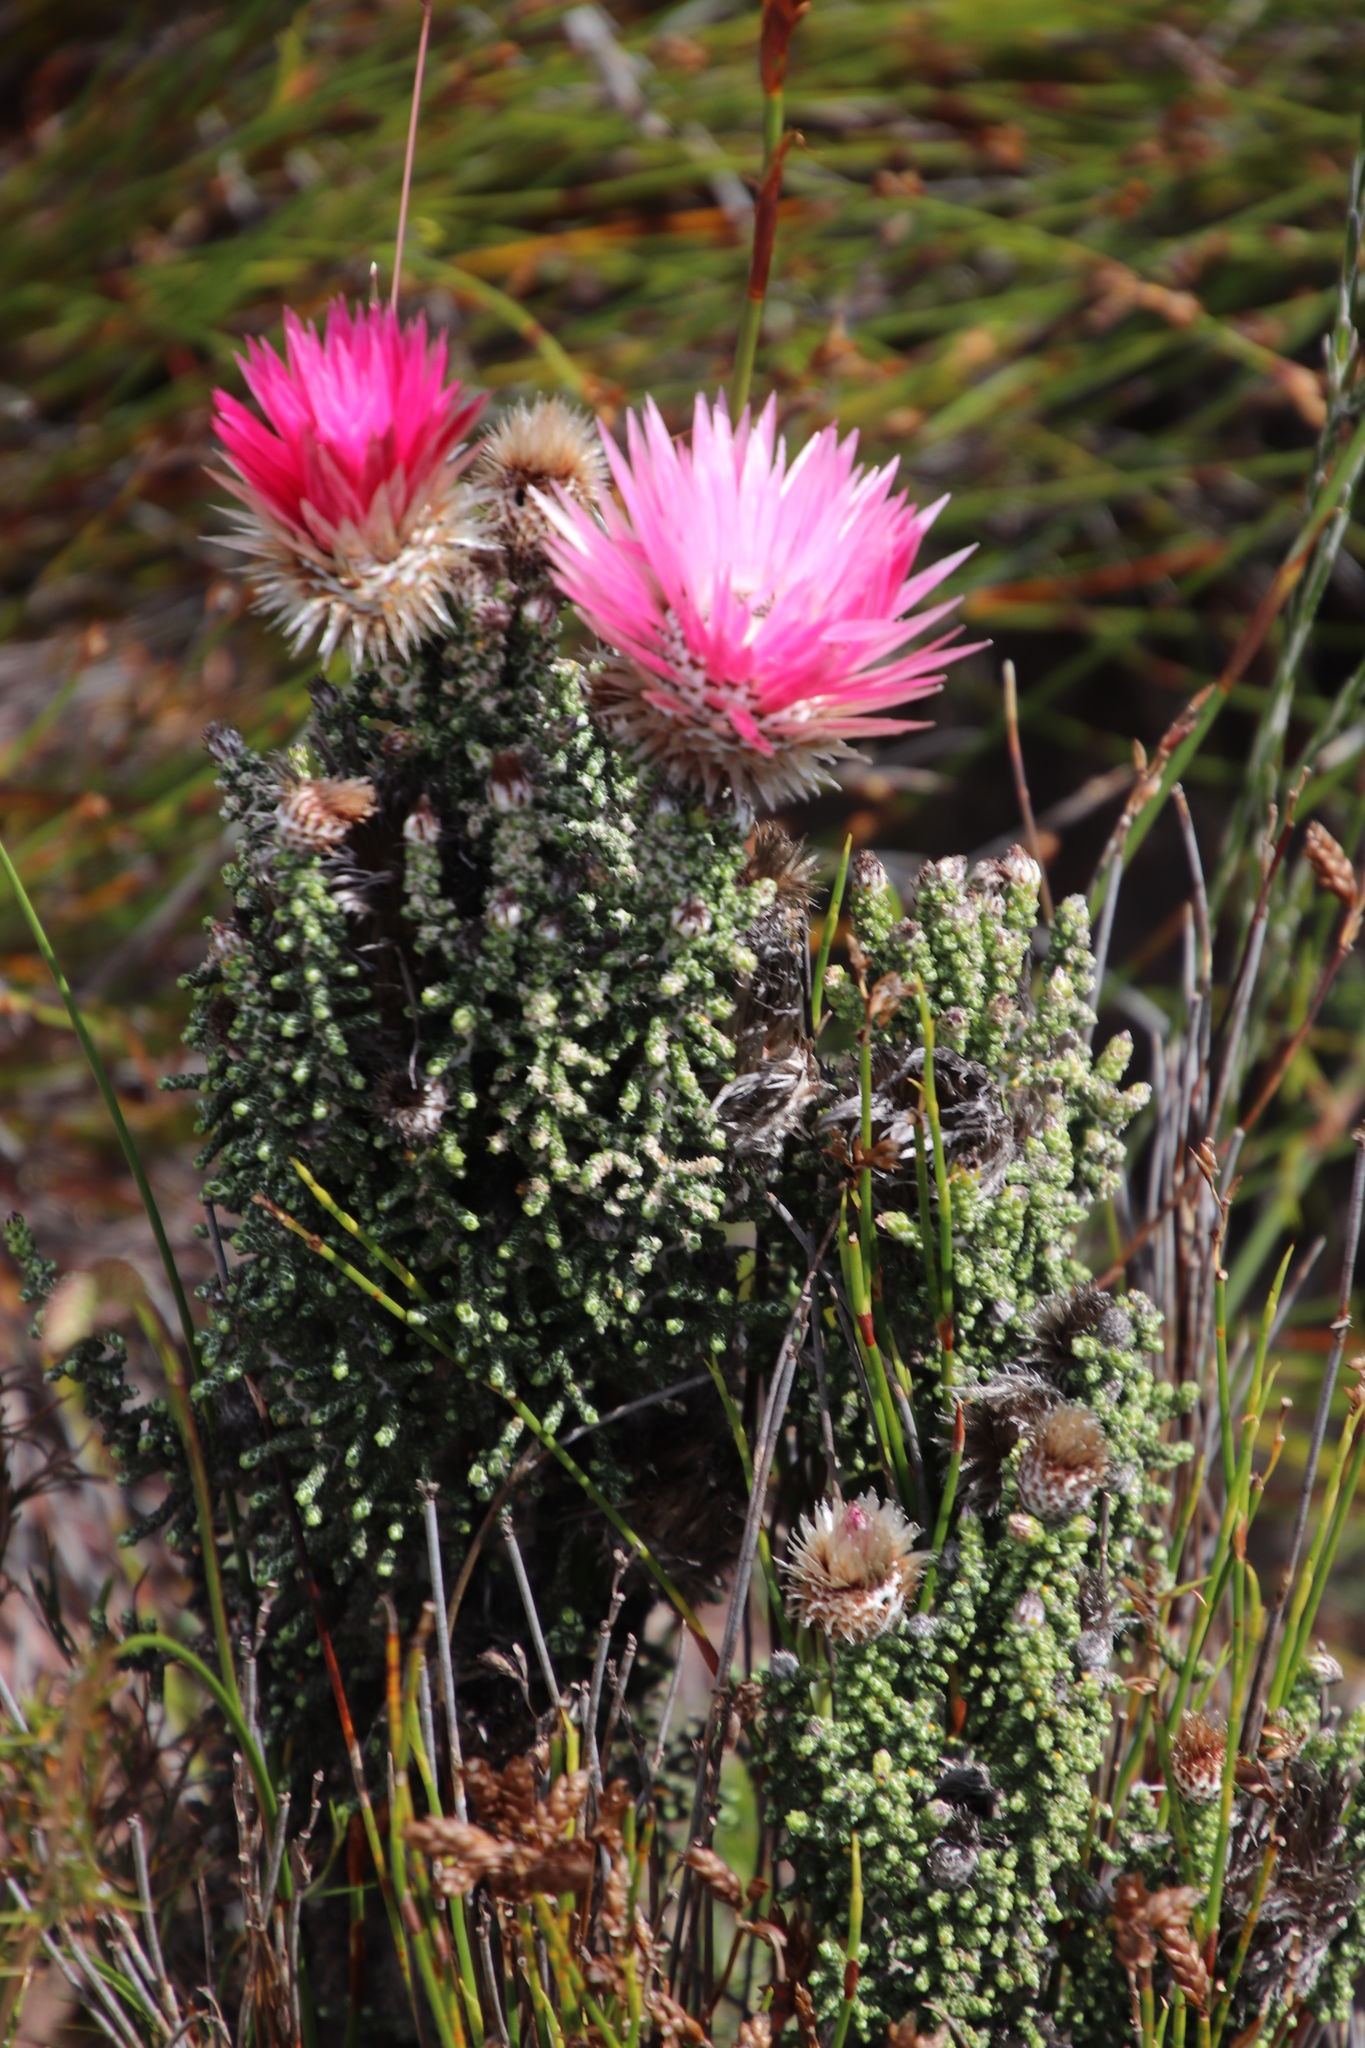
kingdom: Plantae
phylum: Tracheophyta
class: Magnoliopsida
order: Asterales
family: Asteraceae
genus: Phaenocoma
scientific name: Phaenocoma prolifera
